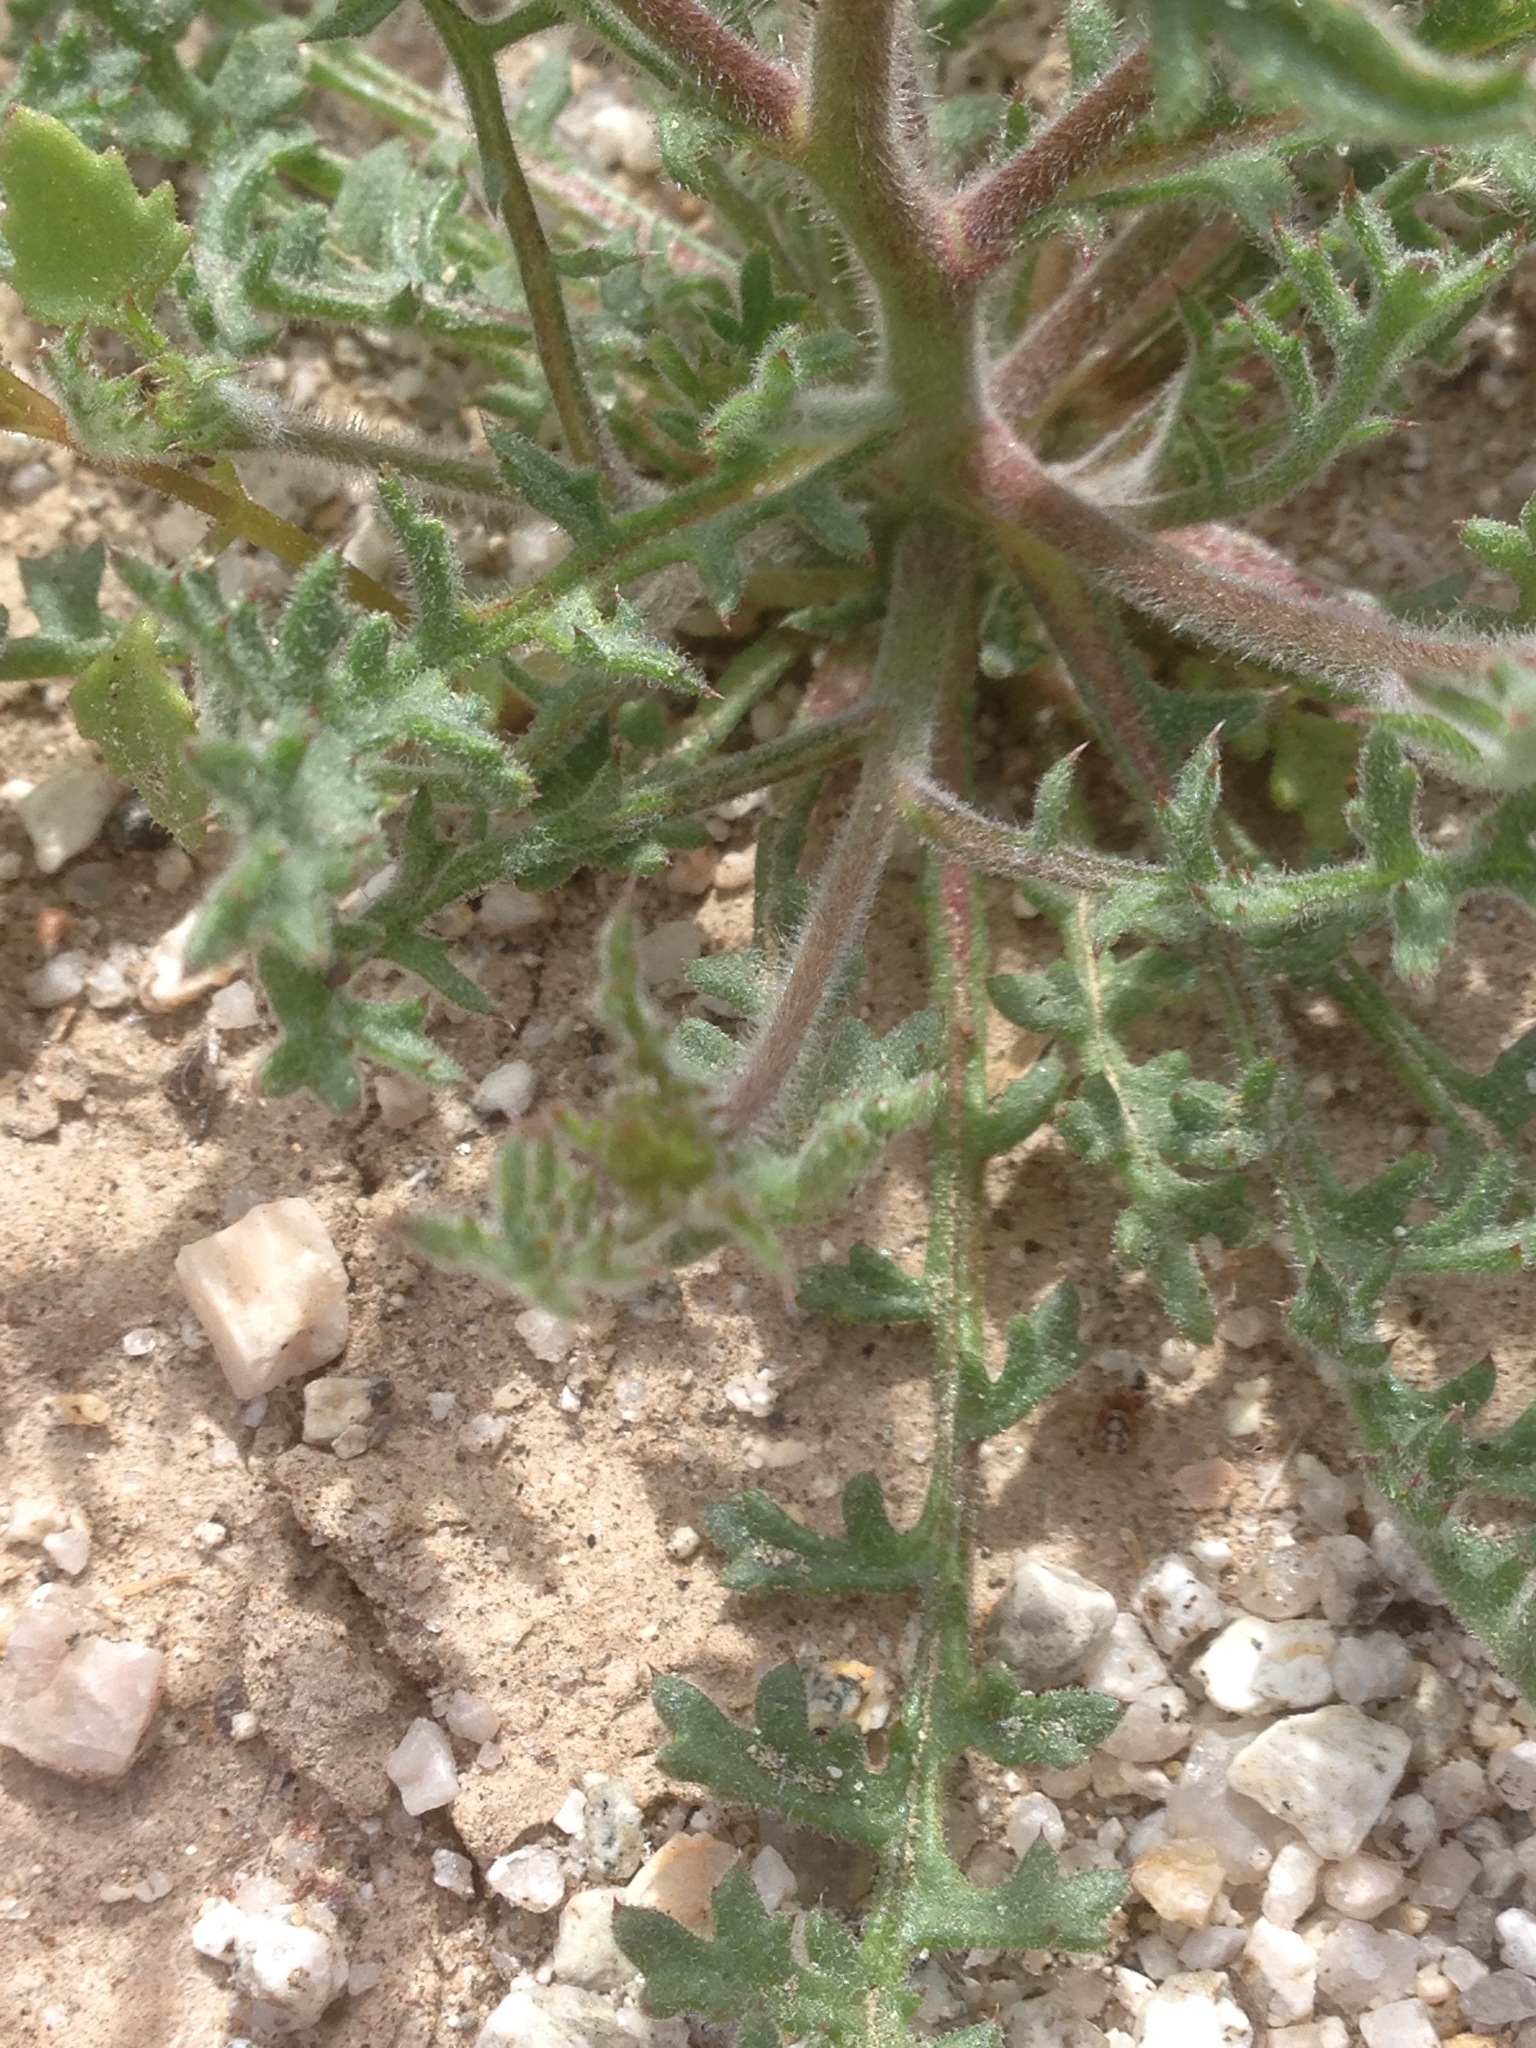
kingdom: Plantae
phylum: Tracheophyta
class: Magnoliopsida
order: Ericales
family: Polemoniaceae
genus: Gilia
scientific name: Gilia stellata
